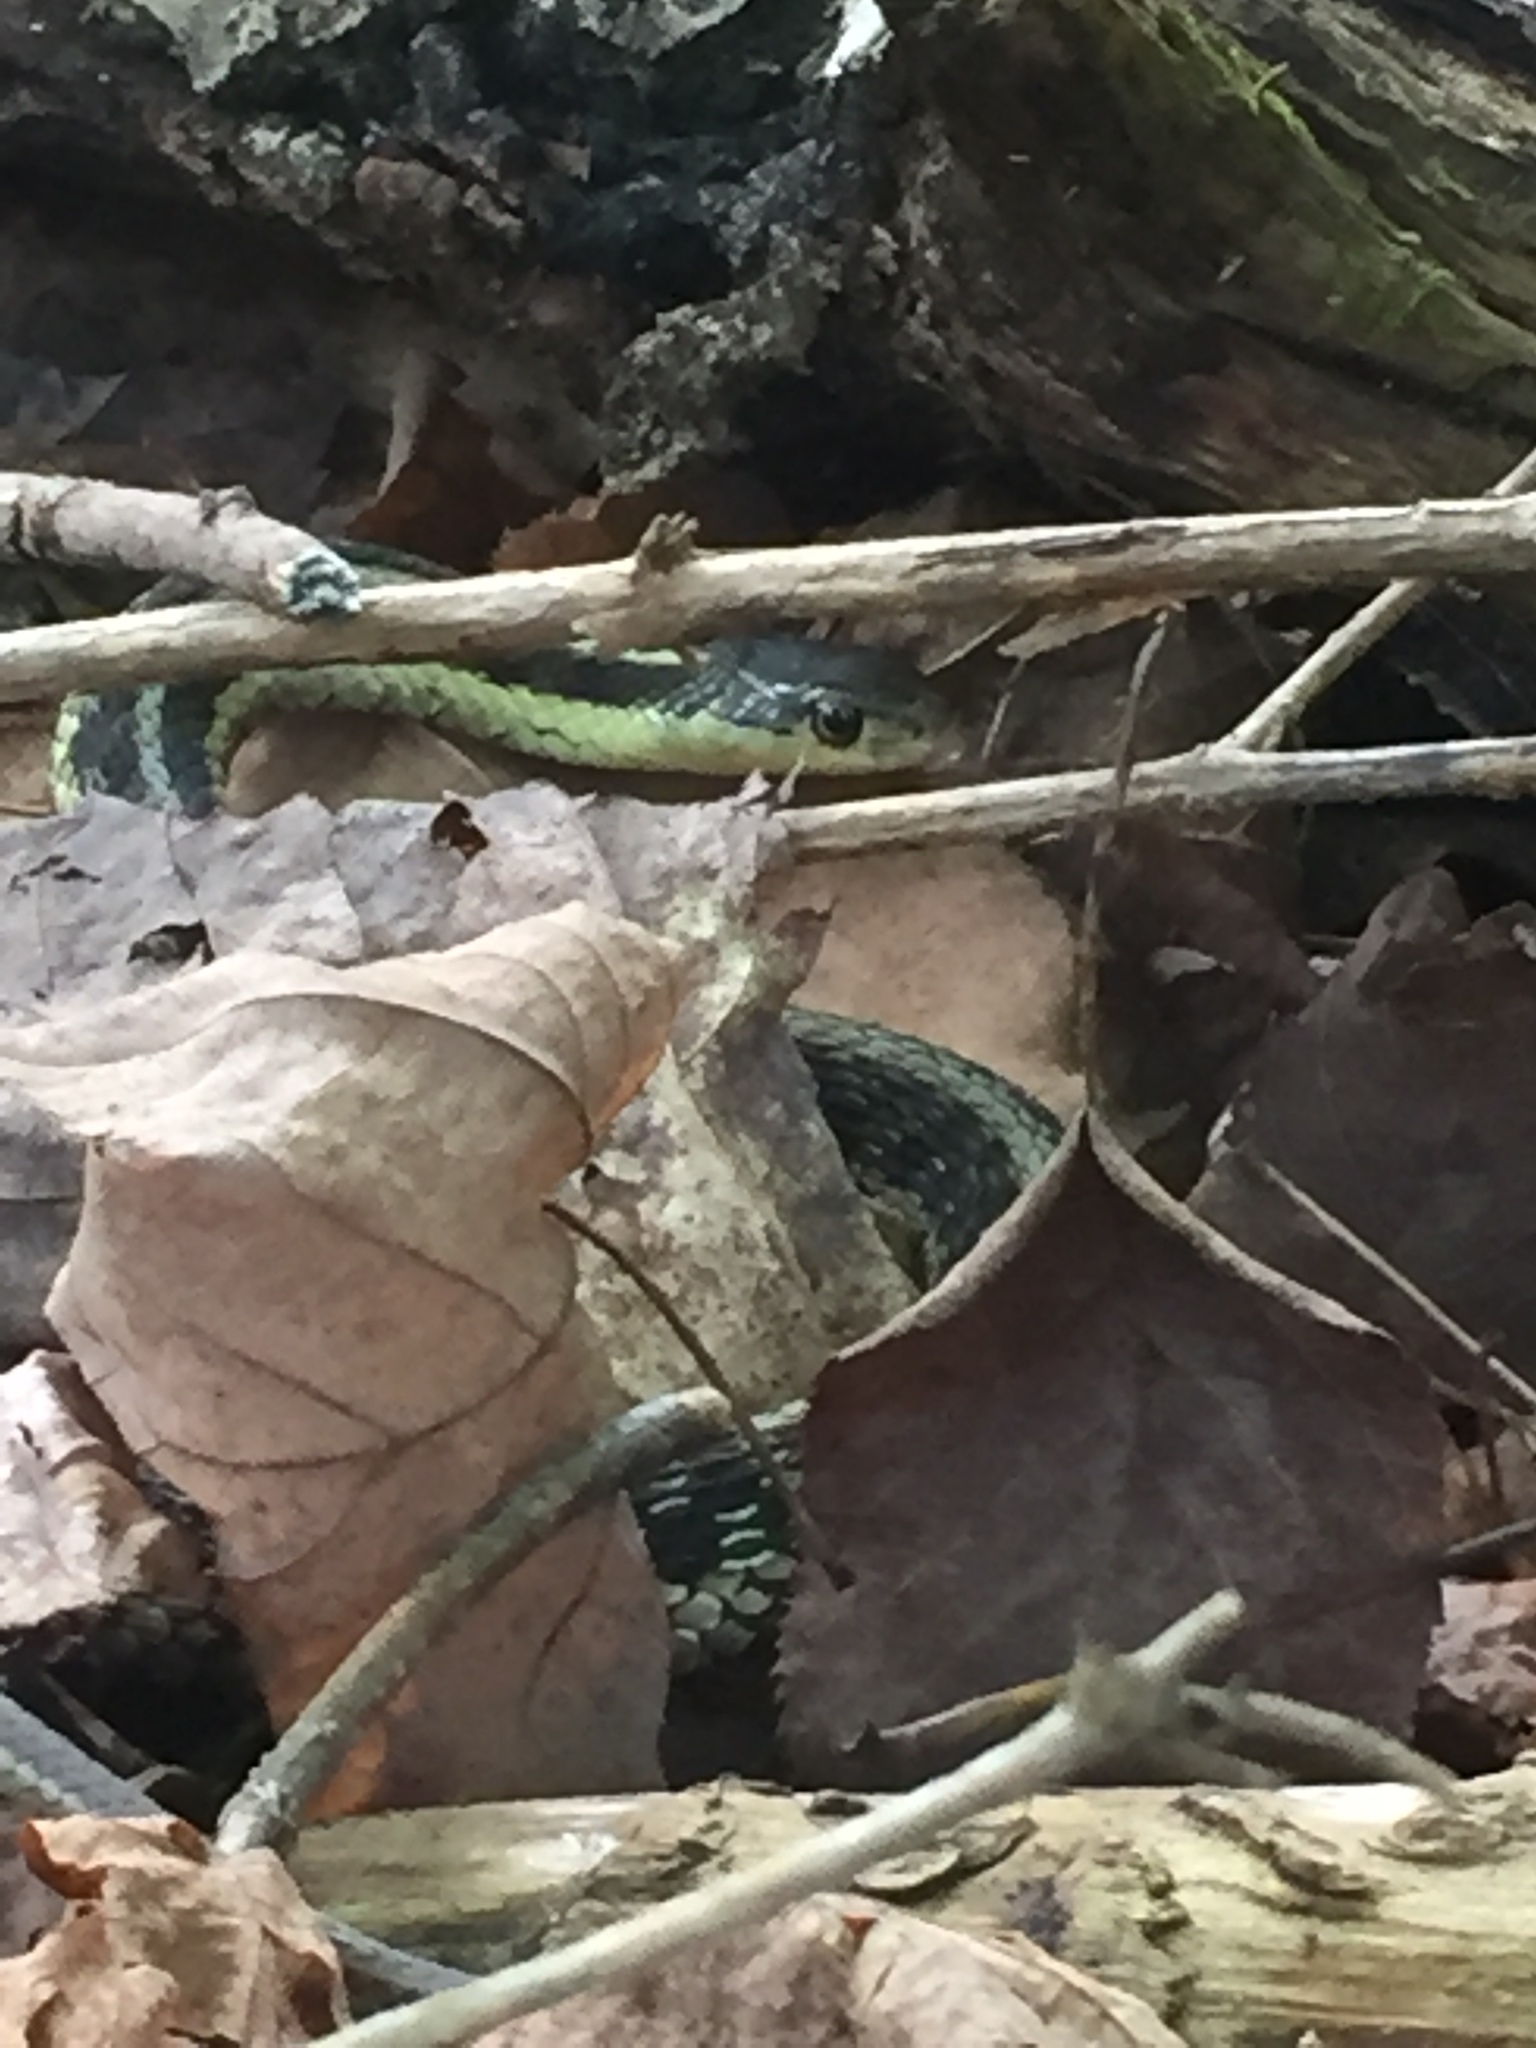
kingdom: Animalia
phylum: Chordata
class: Squamata
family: Colubridae
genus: Thamnophis
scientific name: Thamnophis sirtalis
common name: Common garter snake
